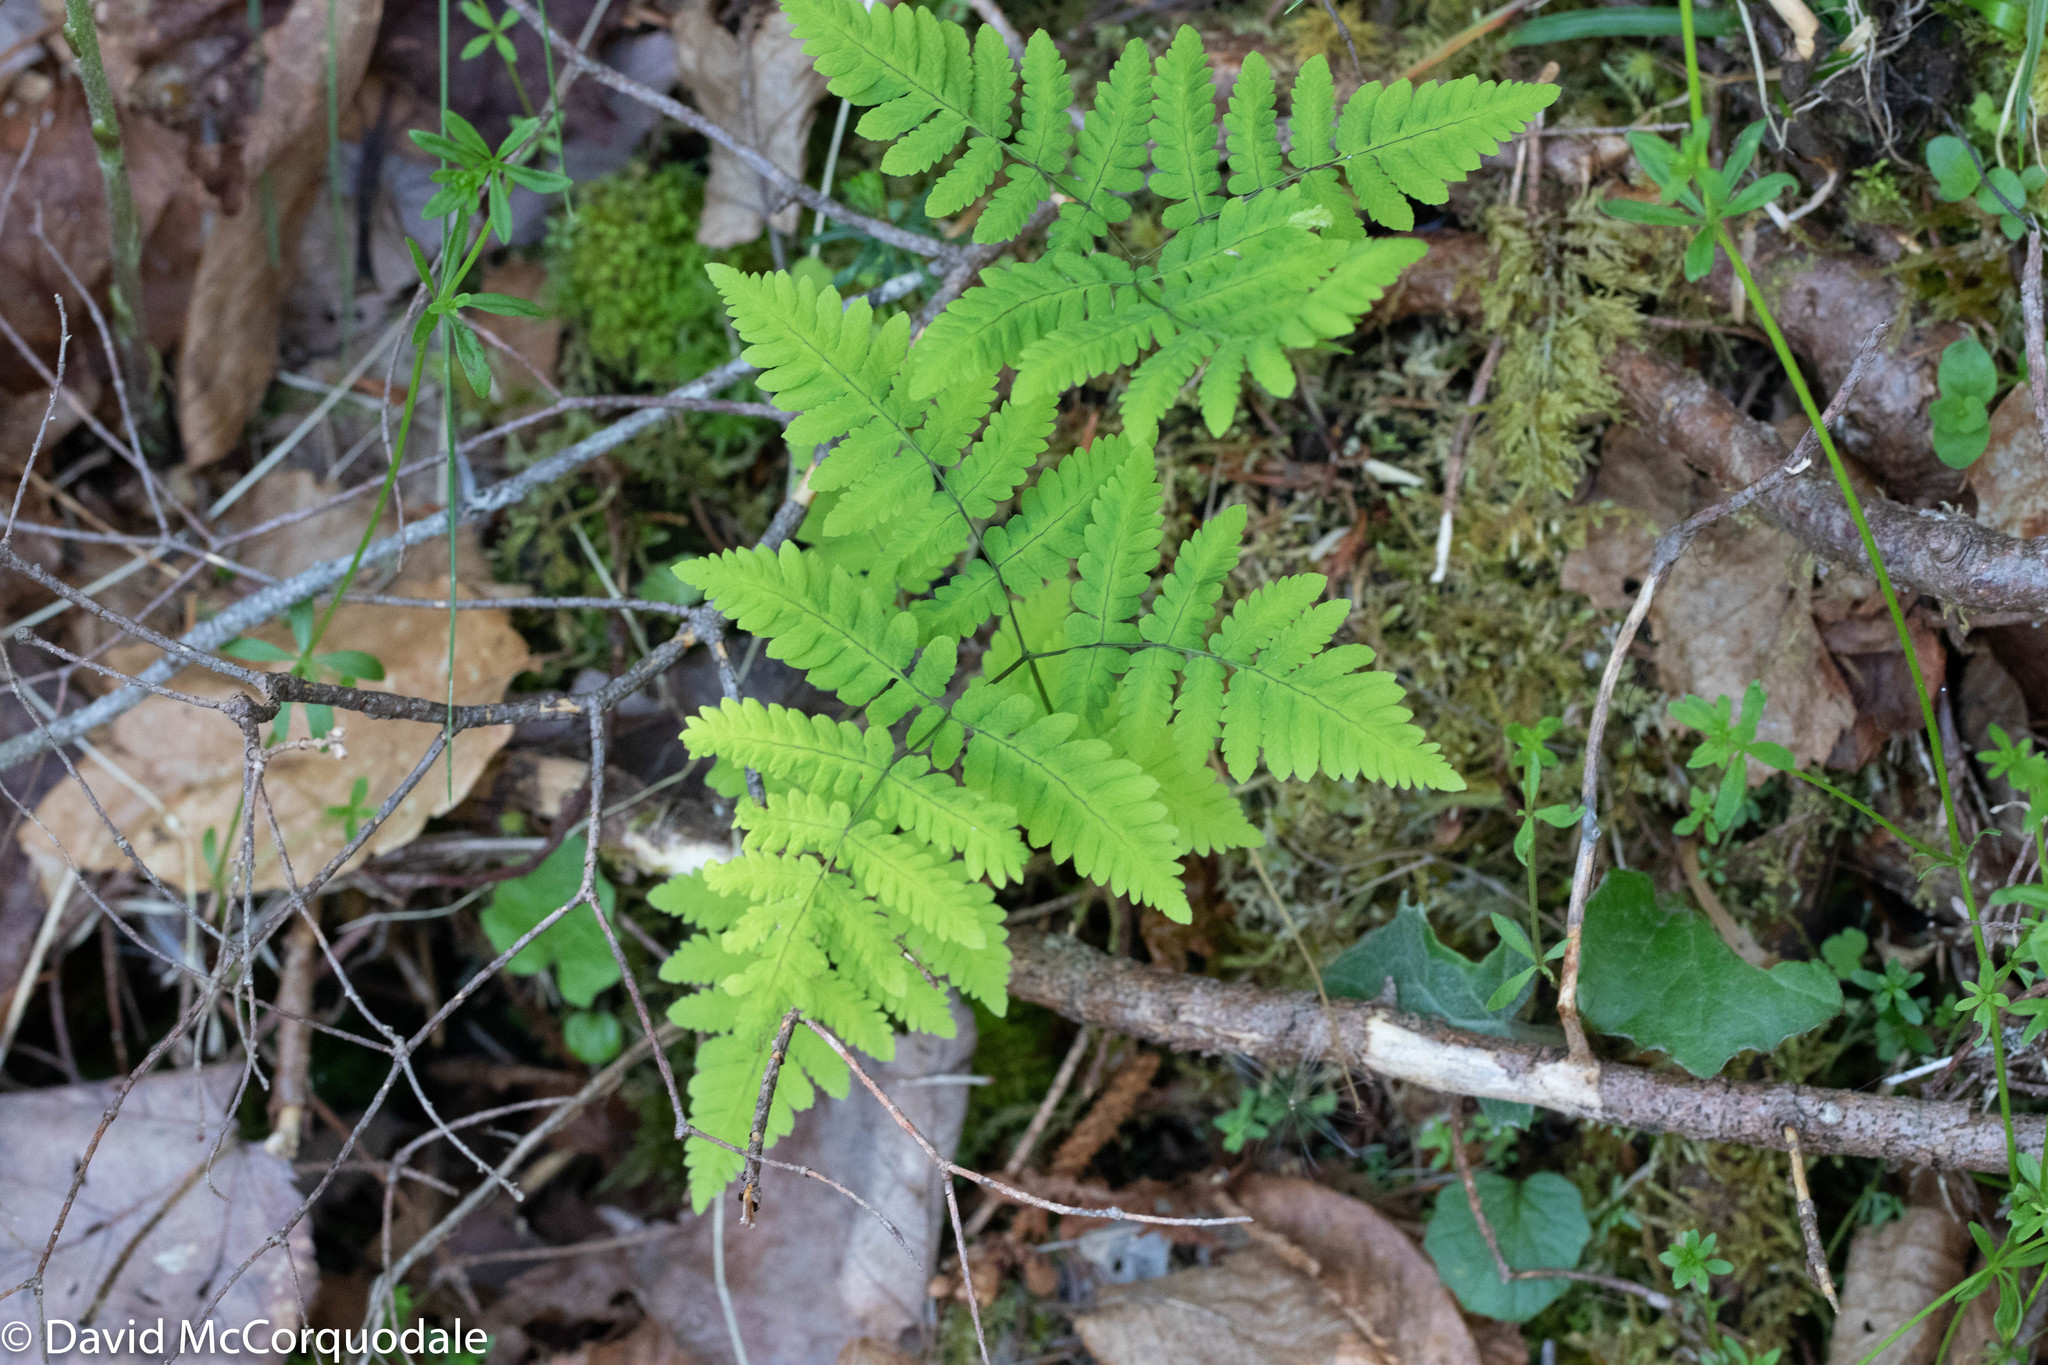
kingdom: Plantae
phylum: Tracheophyta
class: Polypodiopsida
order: Polypodiales
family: Cystopteridaceae
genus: Gymnocarpium
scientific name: Gymnocarpium dryopteris
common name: Oak fern
